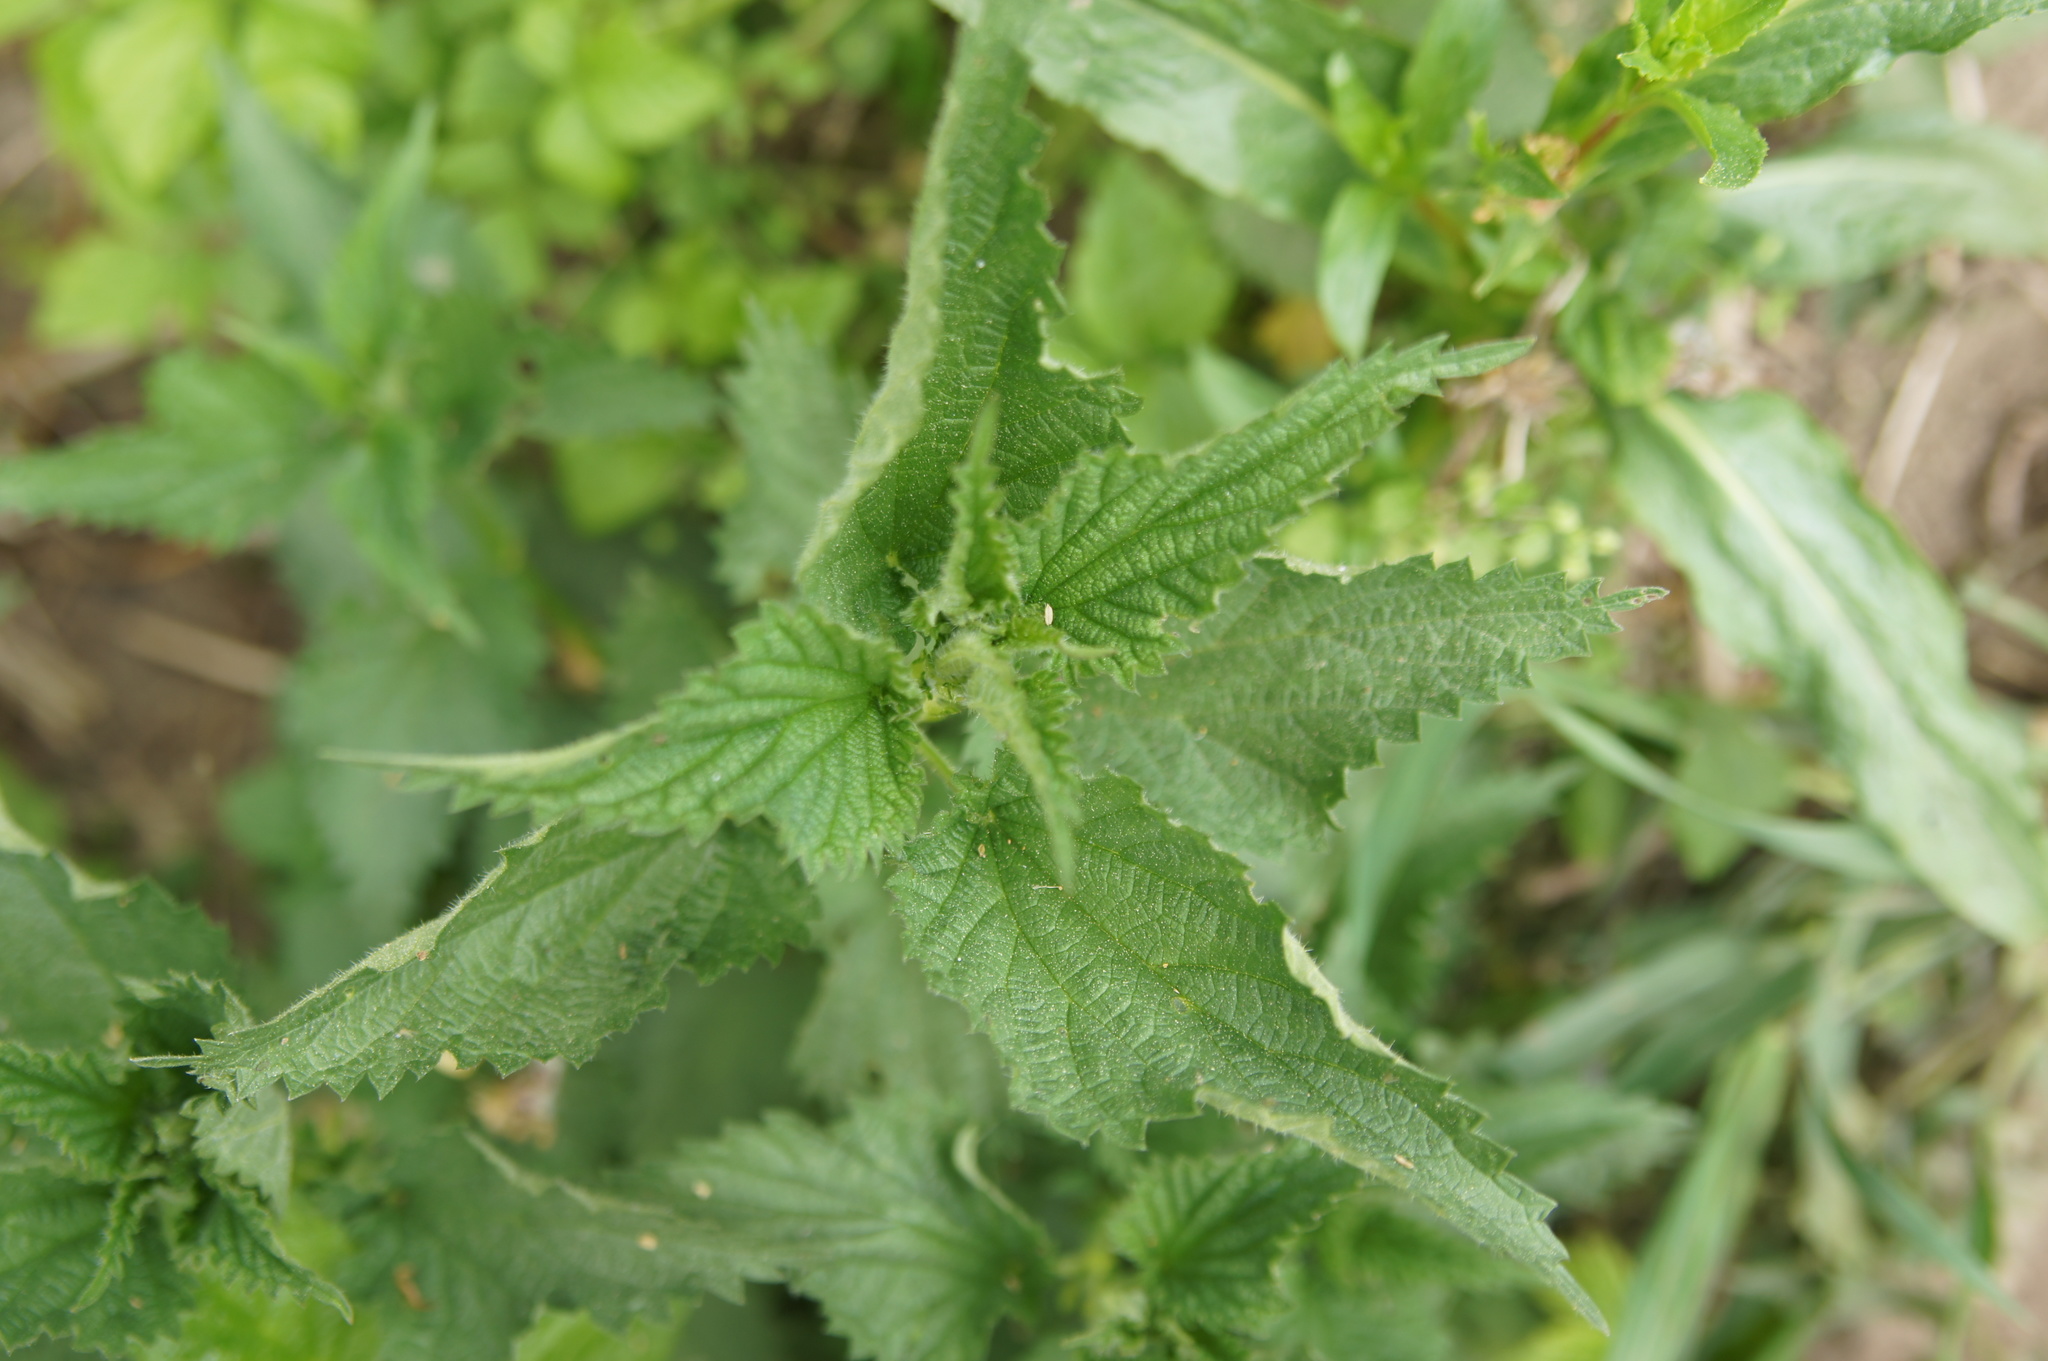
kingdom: Plantae
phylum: Tracheophyta
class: Magnoliopsida
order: Rosales
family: Urticaceae
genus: Urtica
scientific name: Urtica dioica
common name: Common nettle
